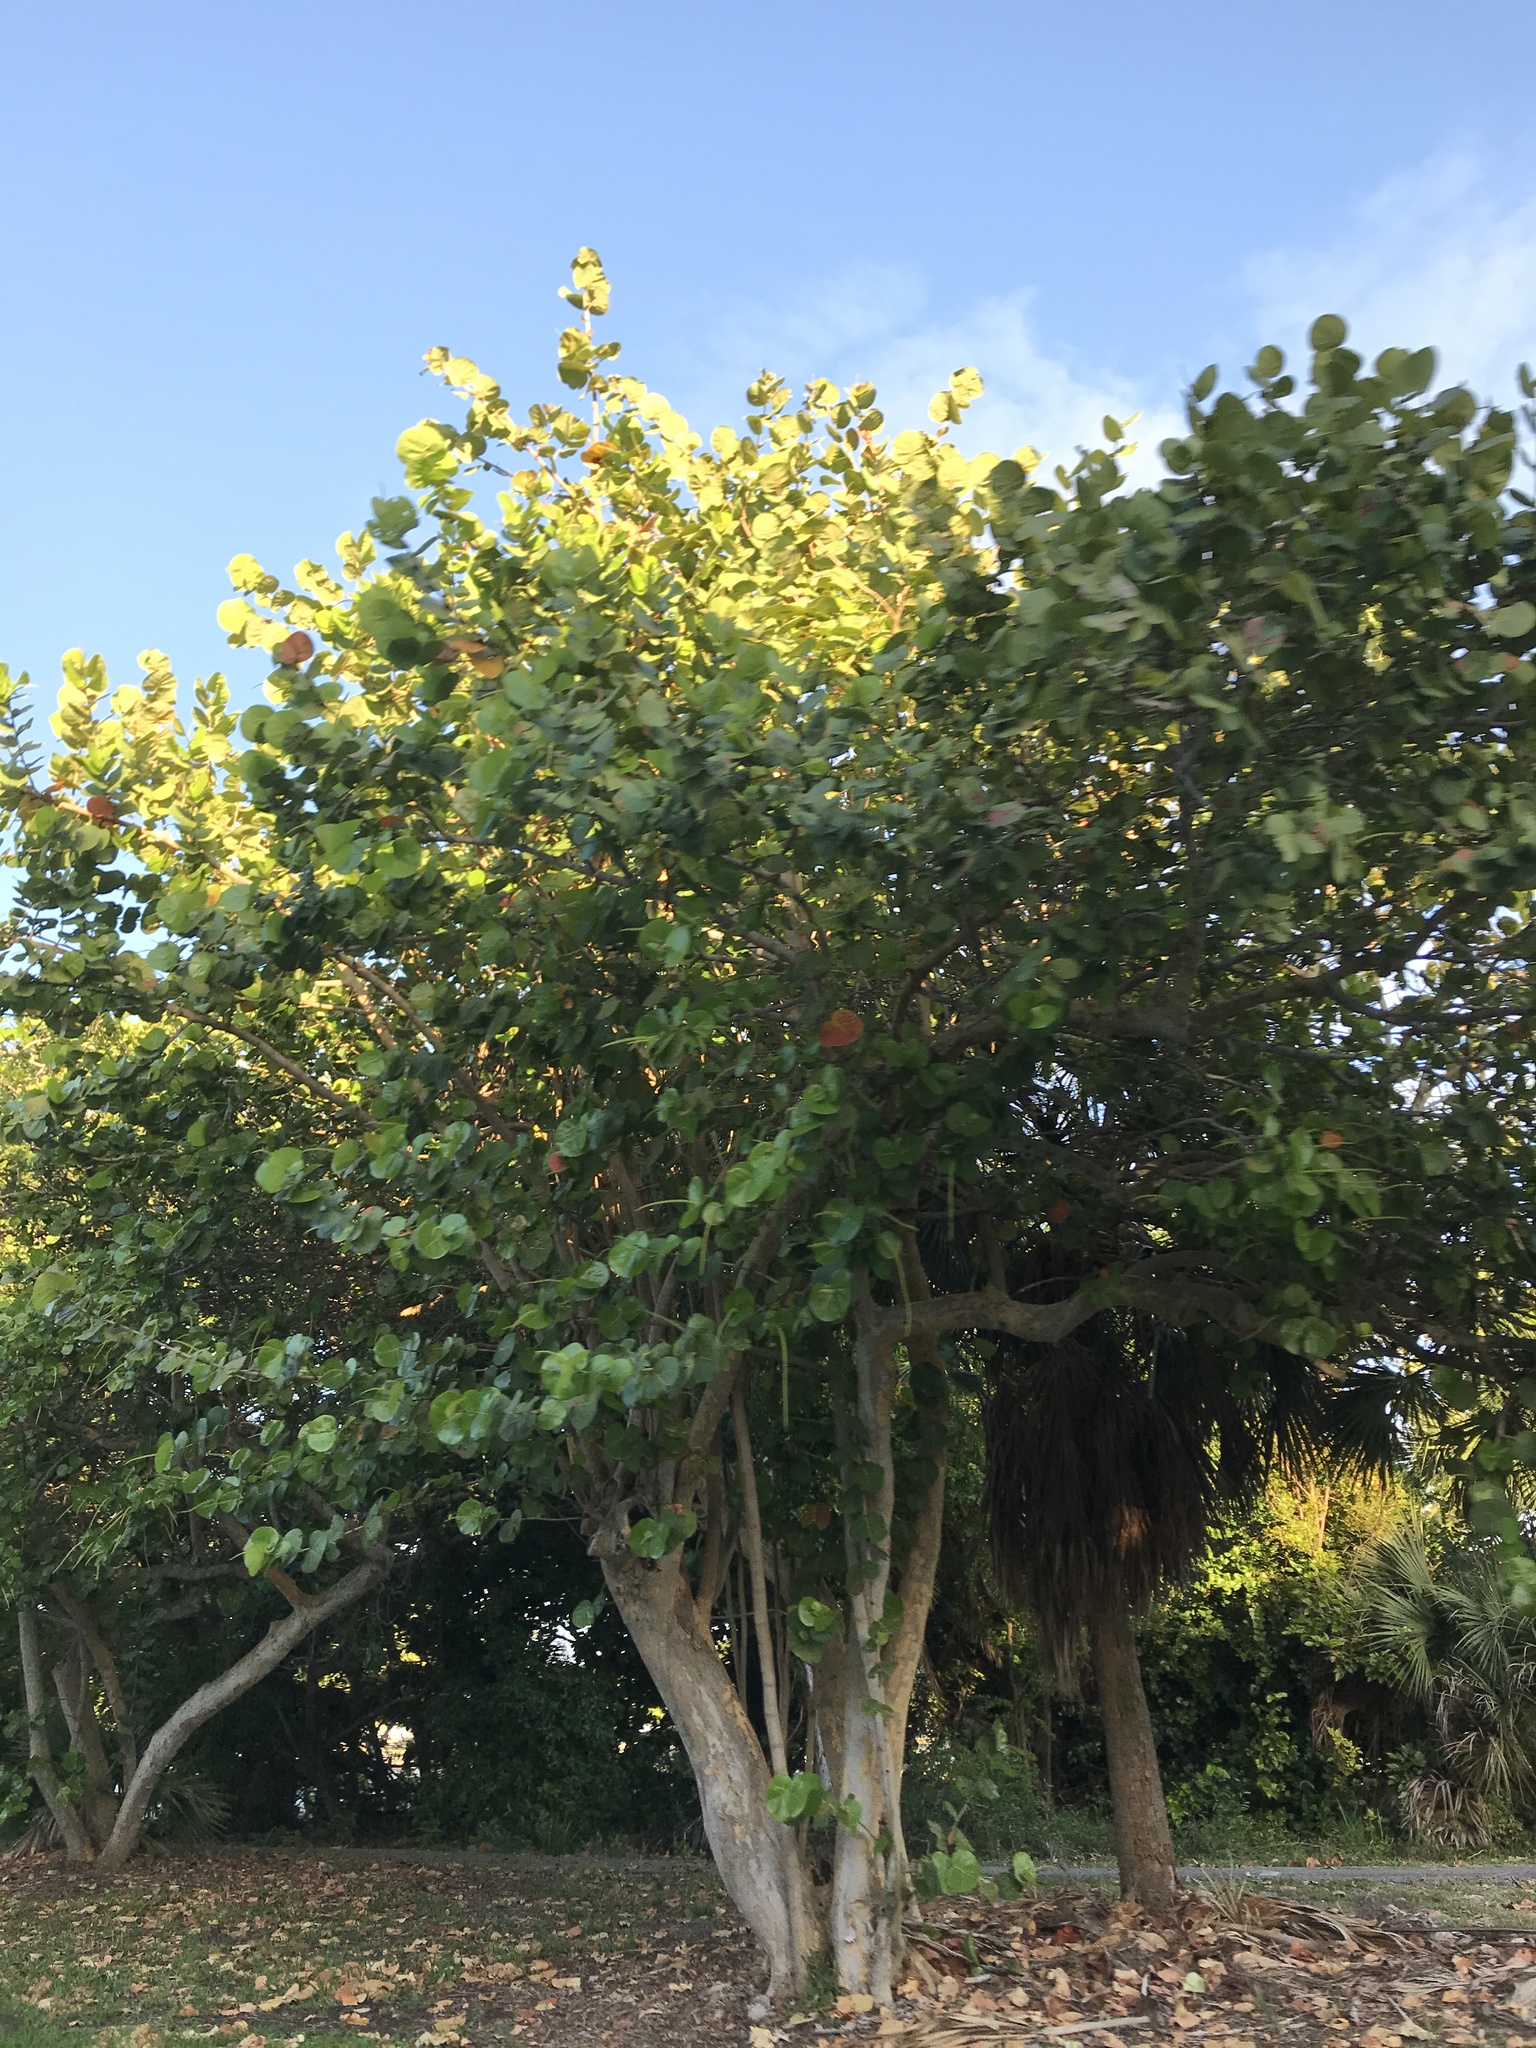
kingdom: Plantae
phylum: Tracheophyta
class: Magnoliopsida
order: Caryophyllales
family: Polygonaceae
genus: Coccoloba
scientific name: Coccoloba uvifera
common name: Seagrape
